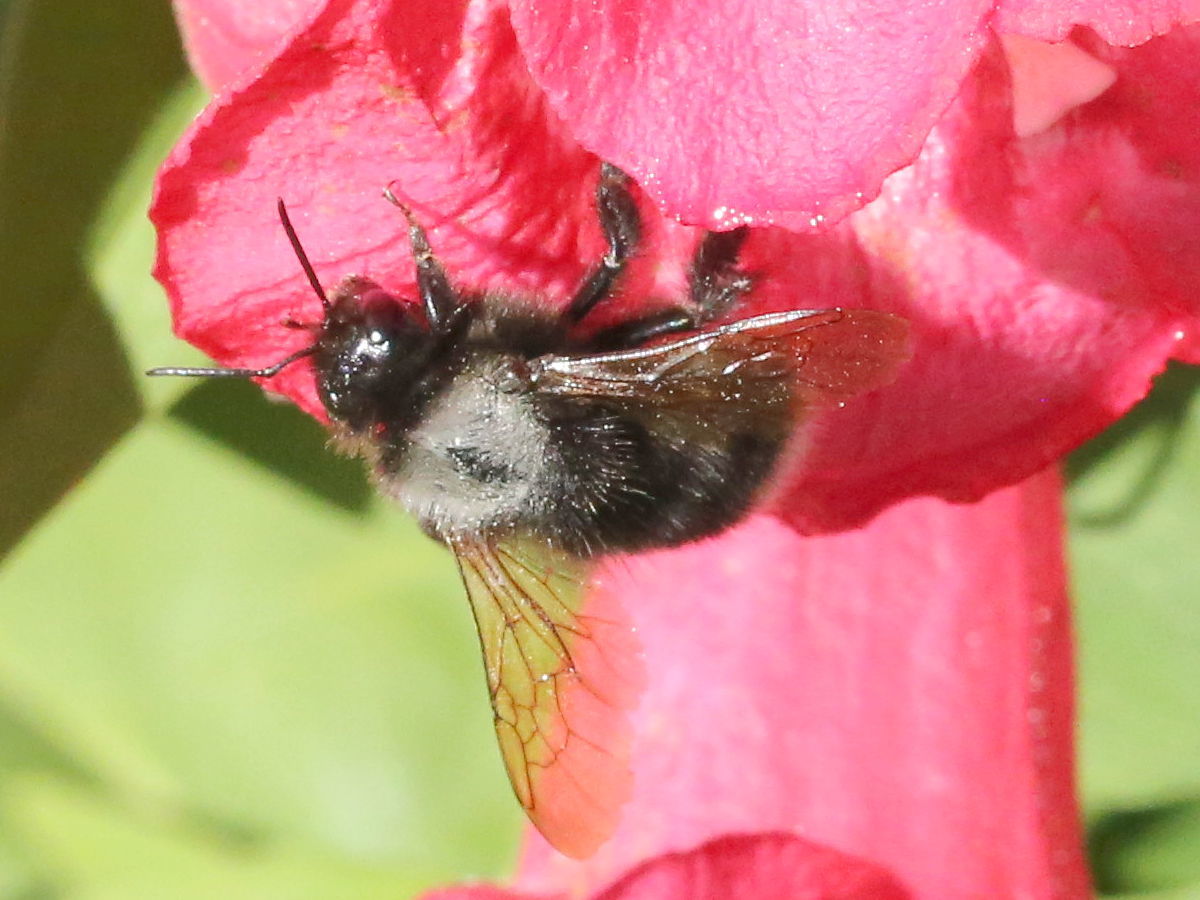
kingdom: Animalia
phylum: Arthropoda
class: Insecta
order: Hymenoptera
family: Apidae
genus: Bombus
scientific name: Bombus funebris
